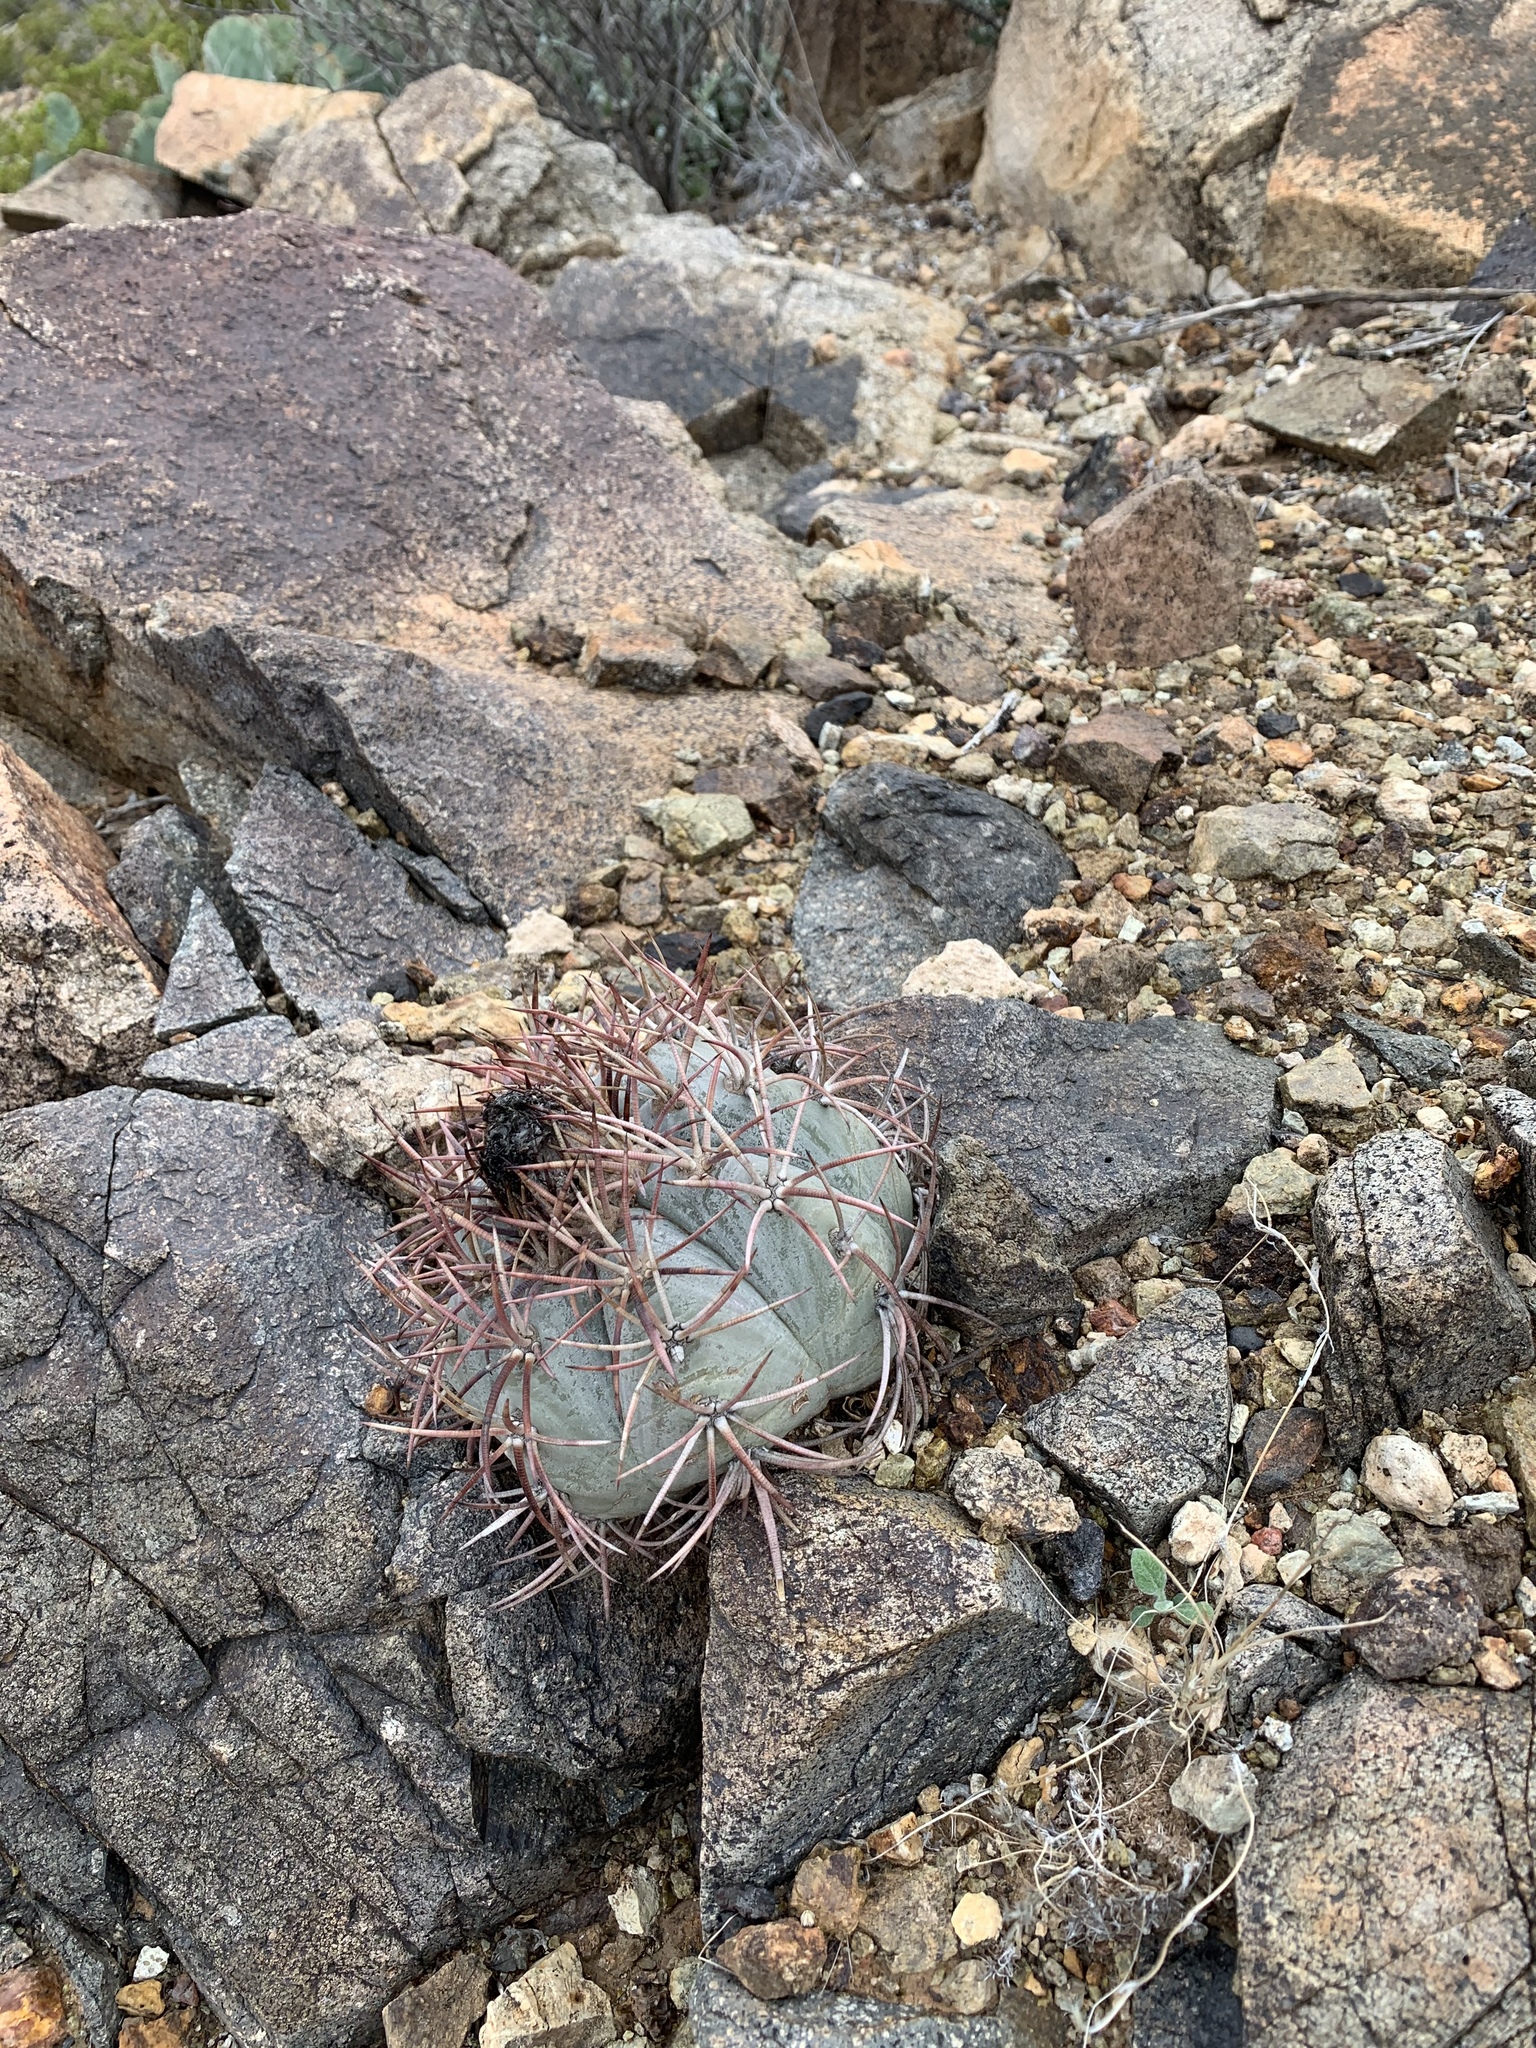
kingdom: Plantae
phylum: Tracheophyta
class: Magnoliopsida
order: Caryophyllales
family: Cactaceae
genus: Echinocactus
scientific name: Echinocactus horizonthalonius
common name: Devilshead
